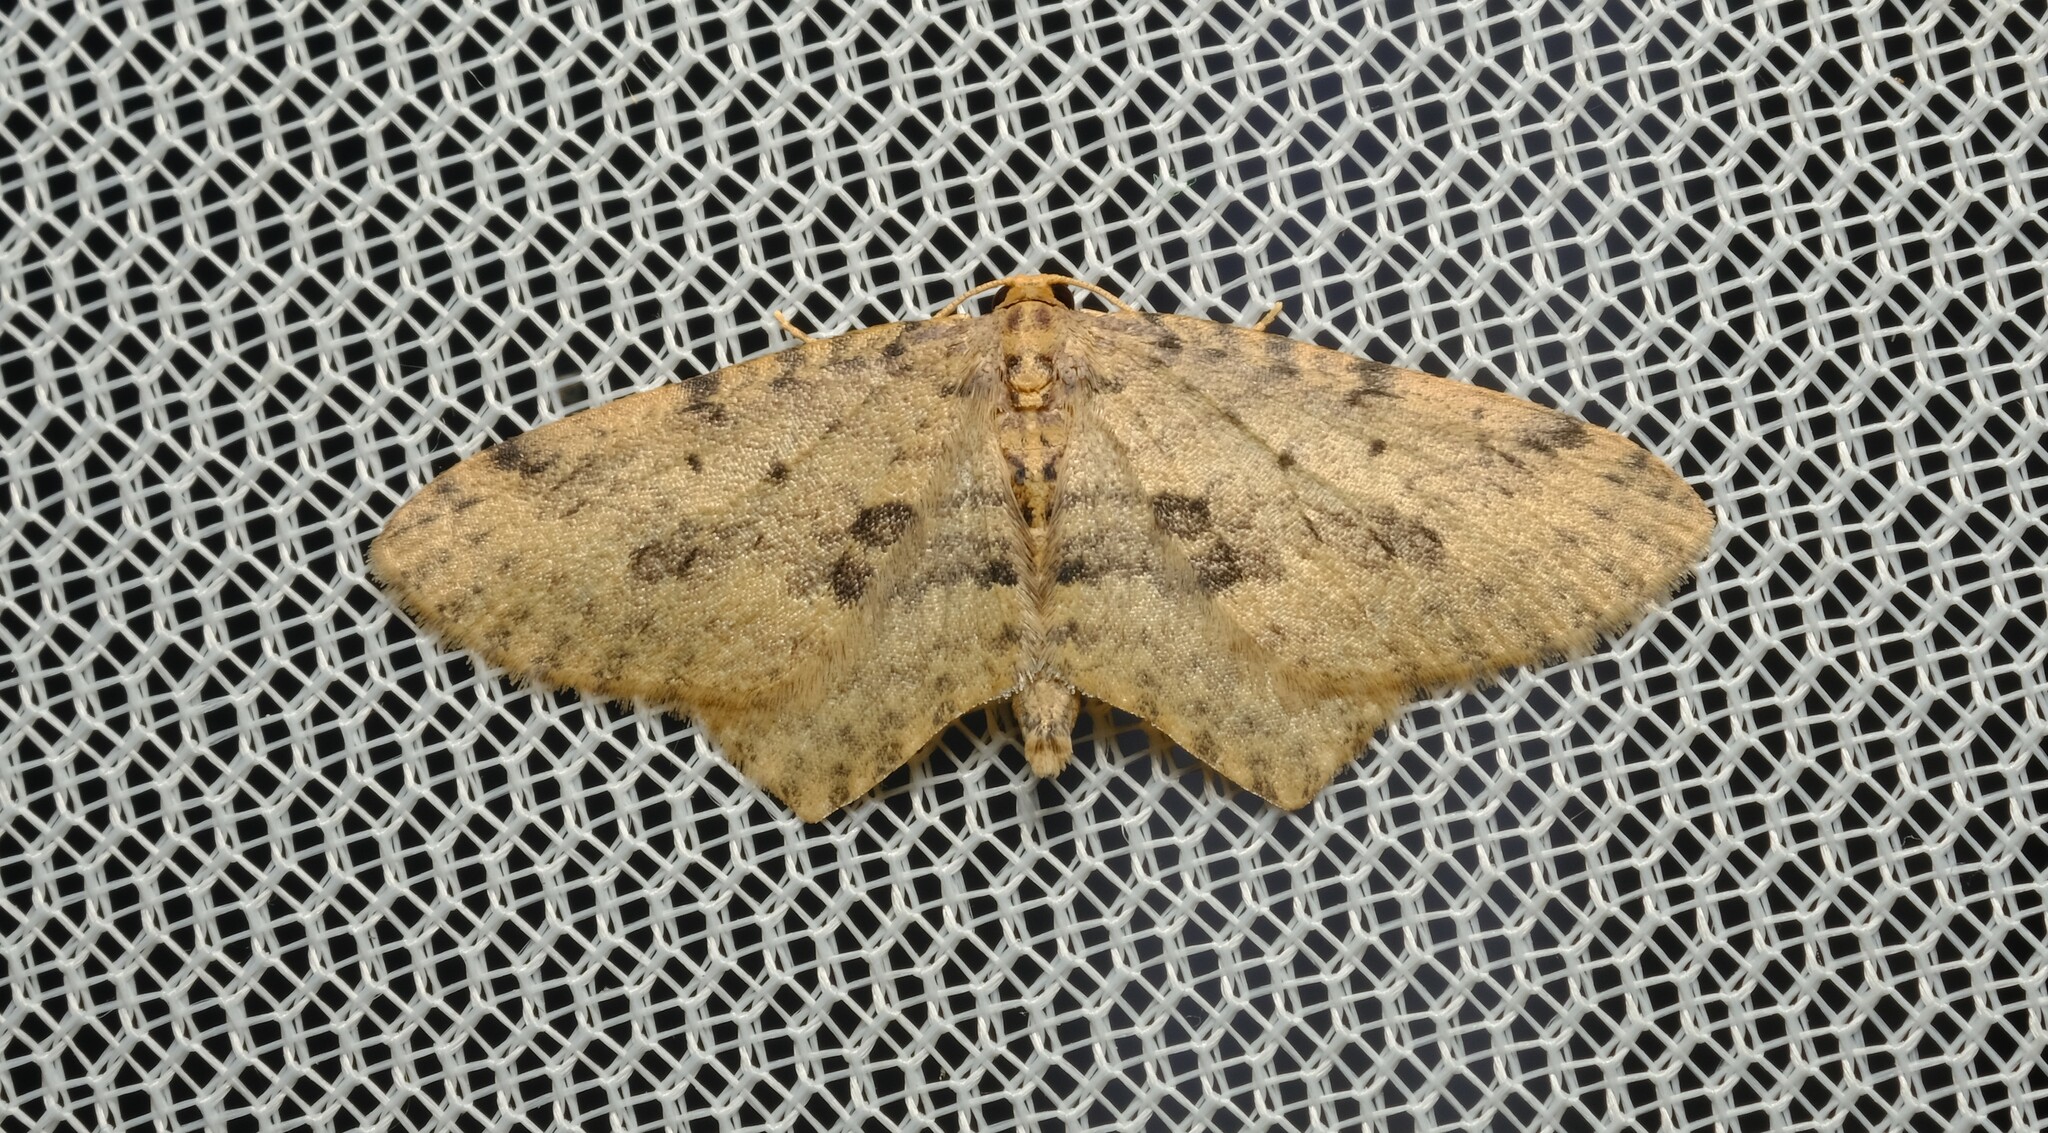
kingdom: Animalia
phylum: Arthropoda
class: Insecta
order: Lepidoptera
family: Geometridae
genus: Poecilasthena
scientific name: Poecilasthena scoliota
